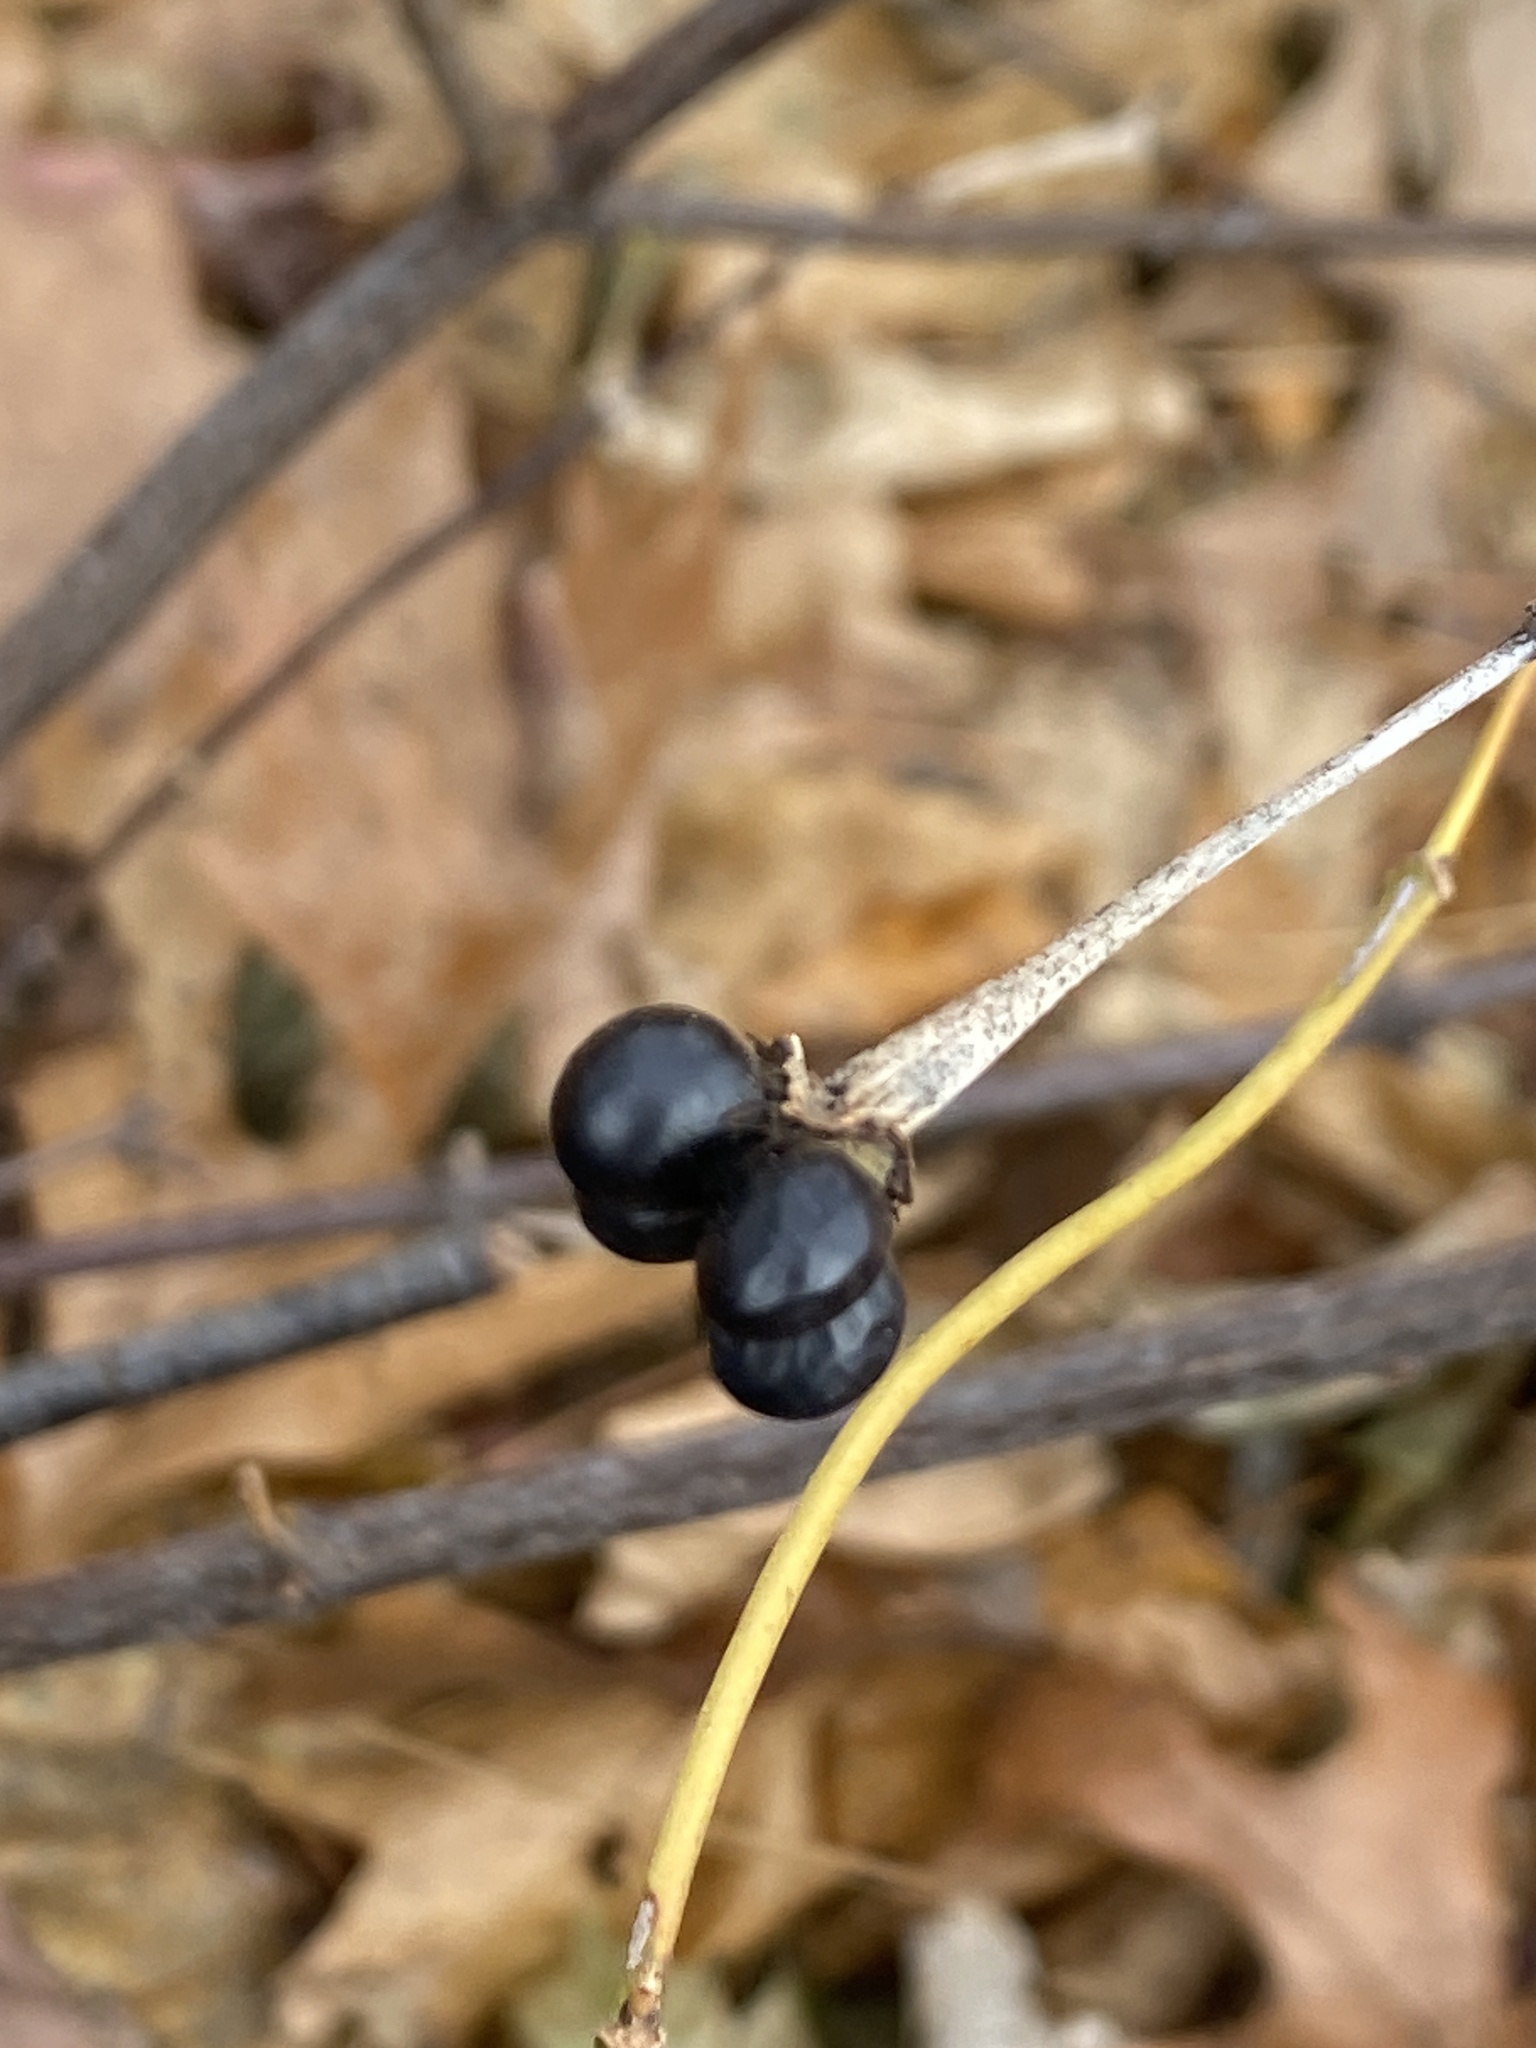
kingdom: Plantae
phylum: Tracheophyta
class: Magnoliopsida
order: Rosales
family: Rosaceae
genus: Rhodotypos
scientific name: Rhodotypos scandens
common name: Jetbead
